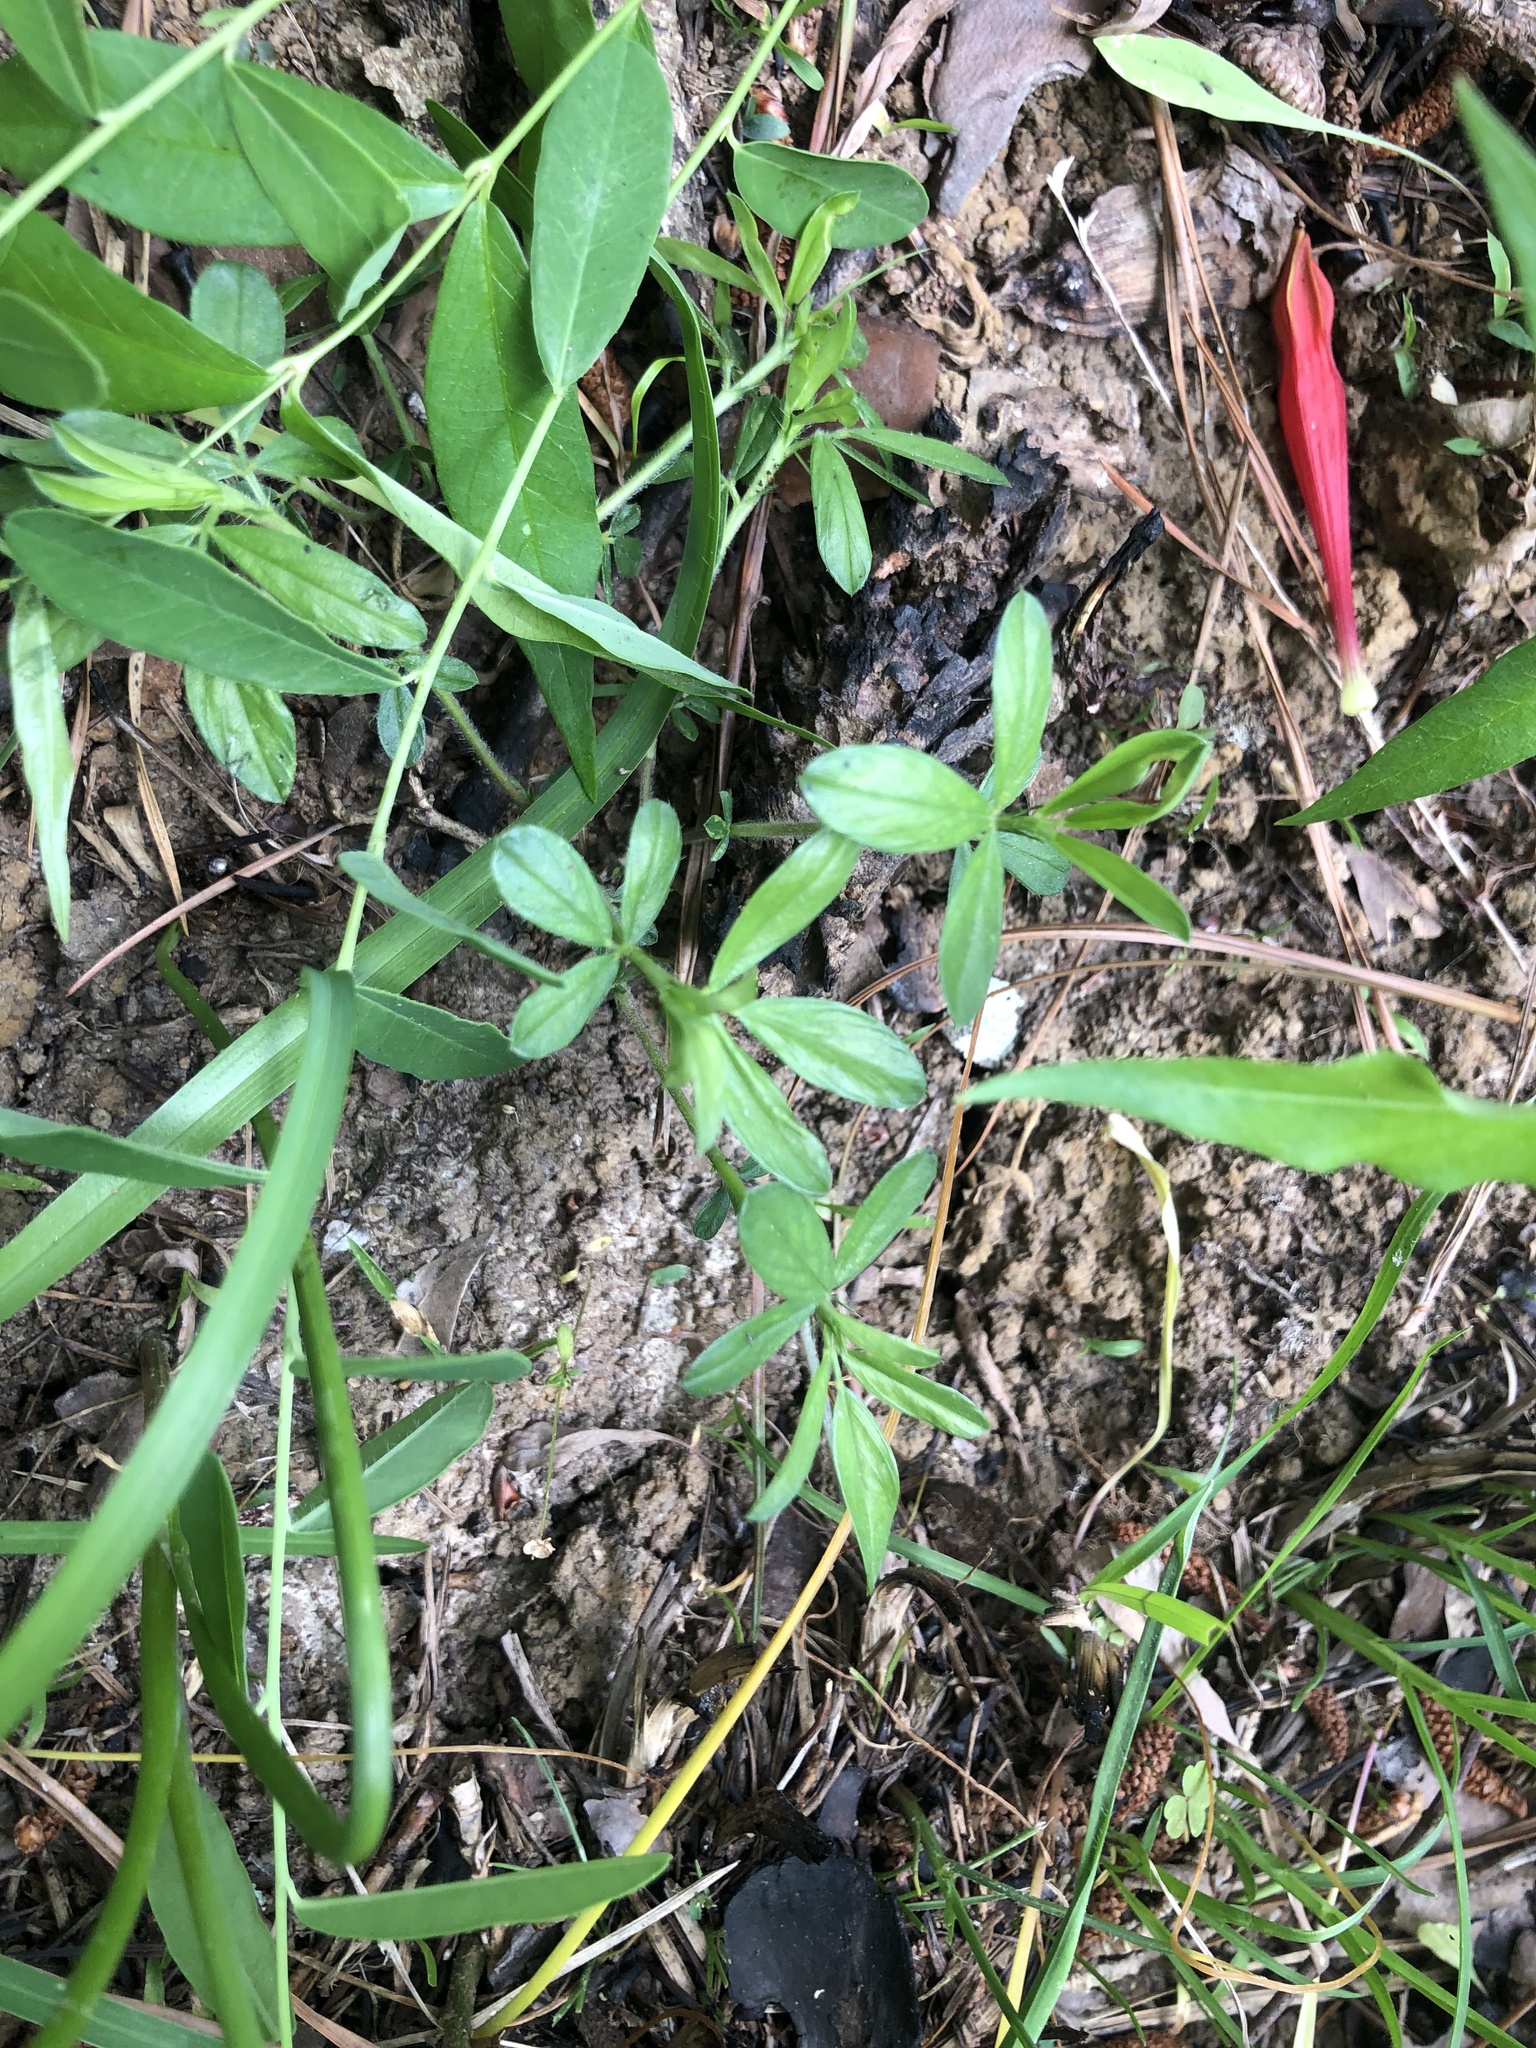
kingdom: Plantae
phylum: Tracheophyta
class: Magnoliopsida
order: Fabales
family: Fabaceae
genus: Stylosanthes
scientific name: Stylosanthes biflora
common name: Two-flower pencil-flower
